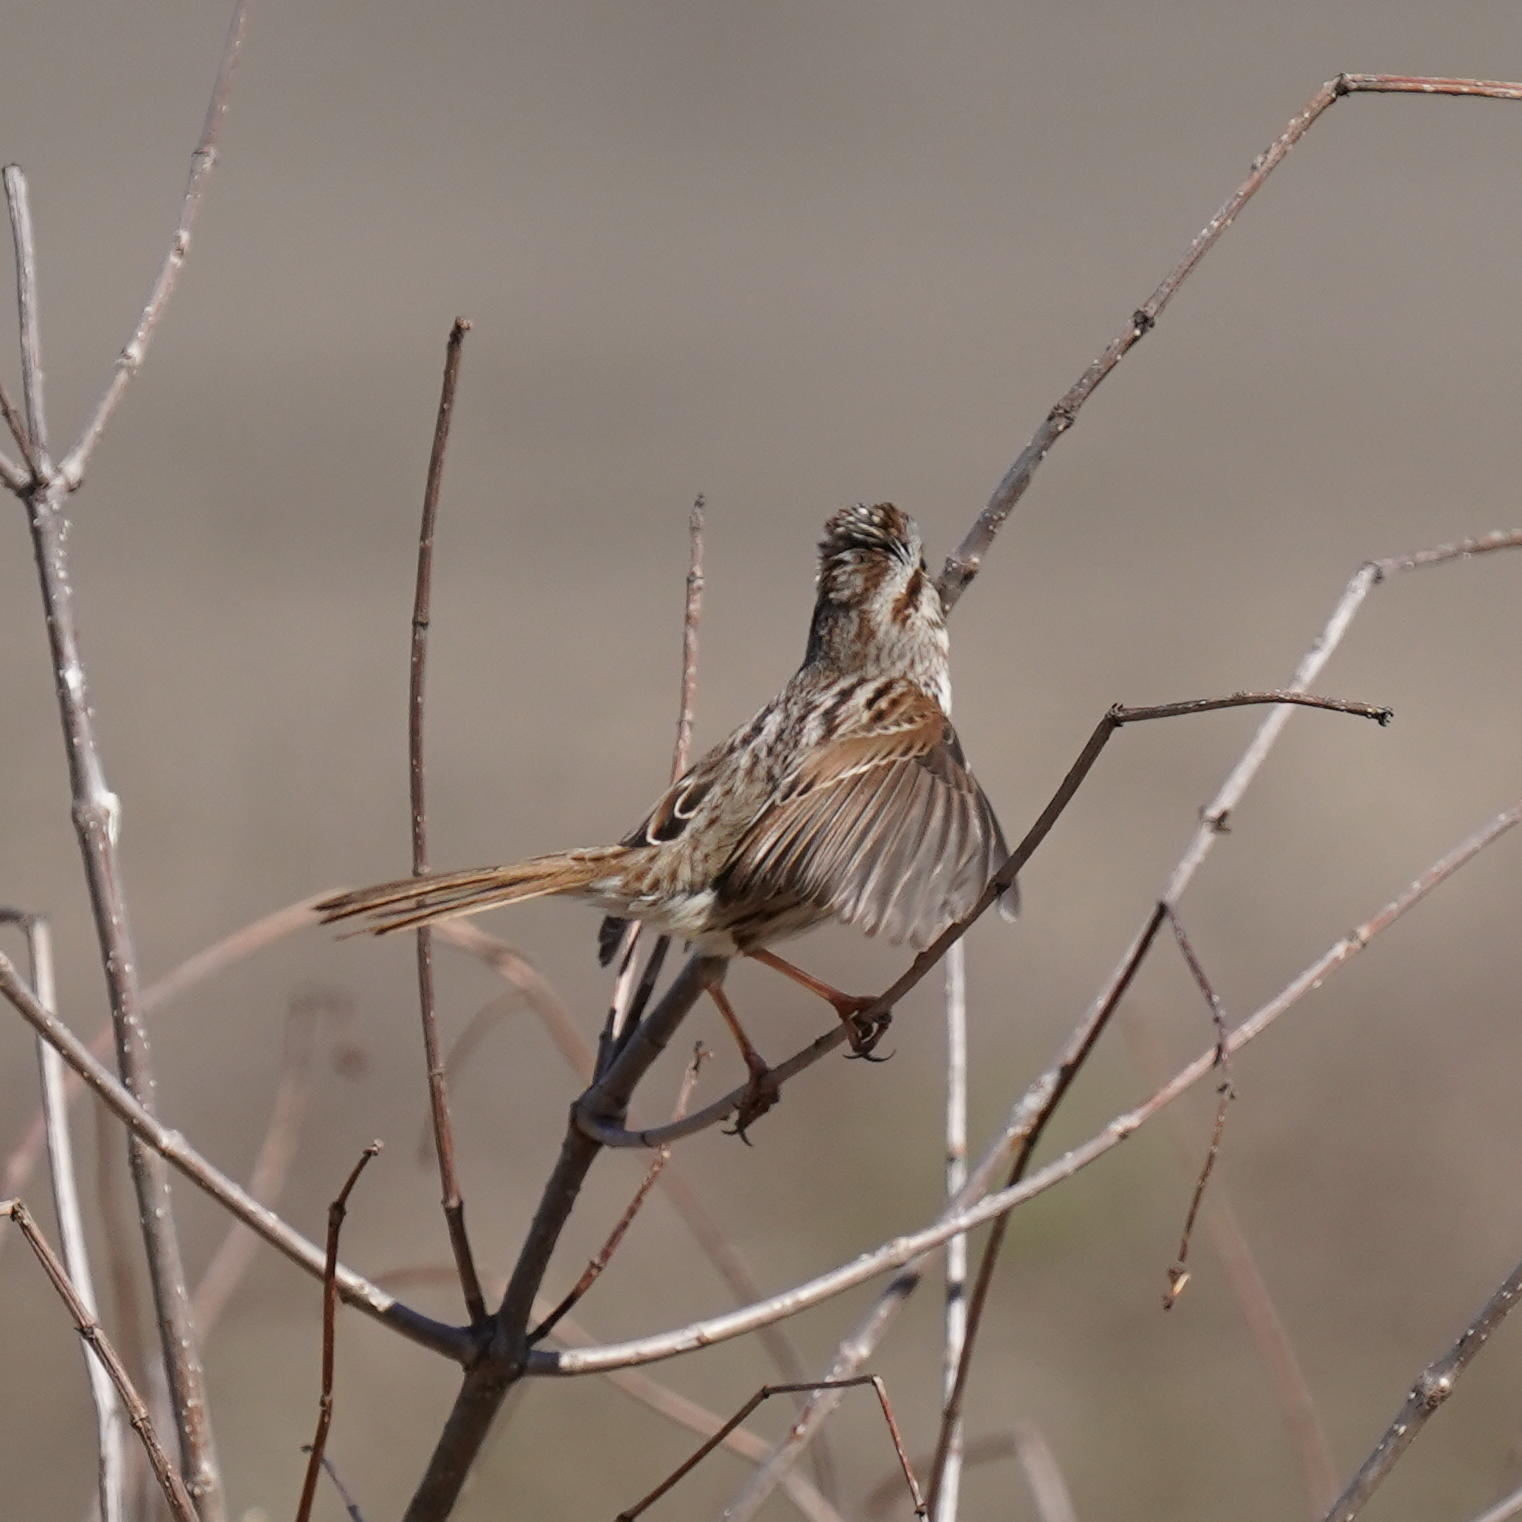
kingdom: Animalia
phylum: Chordata
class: Aves
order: Passeriformes
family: Passerellidae
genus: Melospiza
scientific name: Melospiza melodia
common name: Song sparrow
